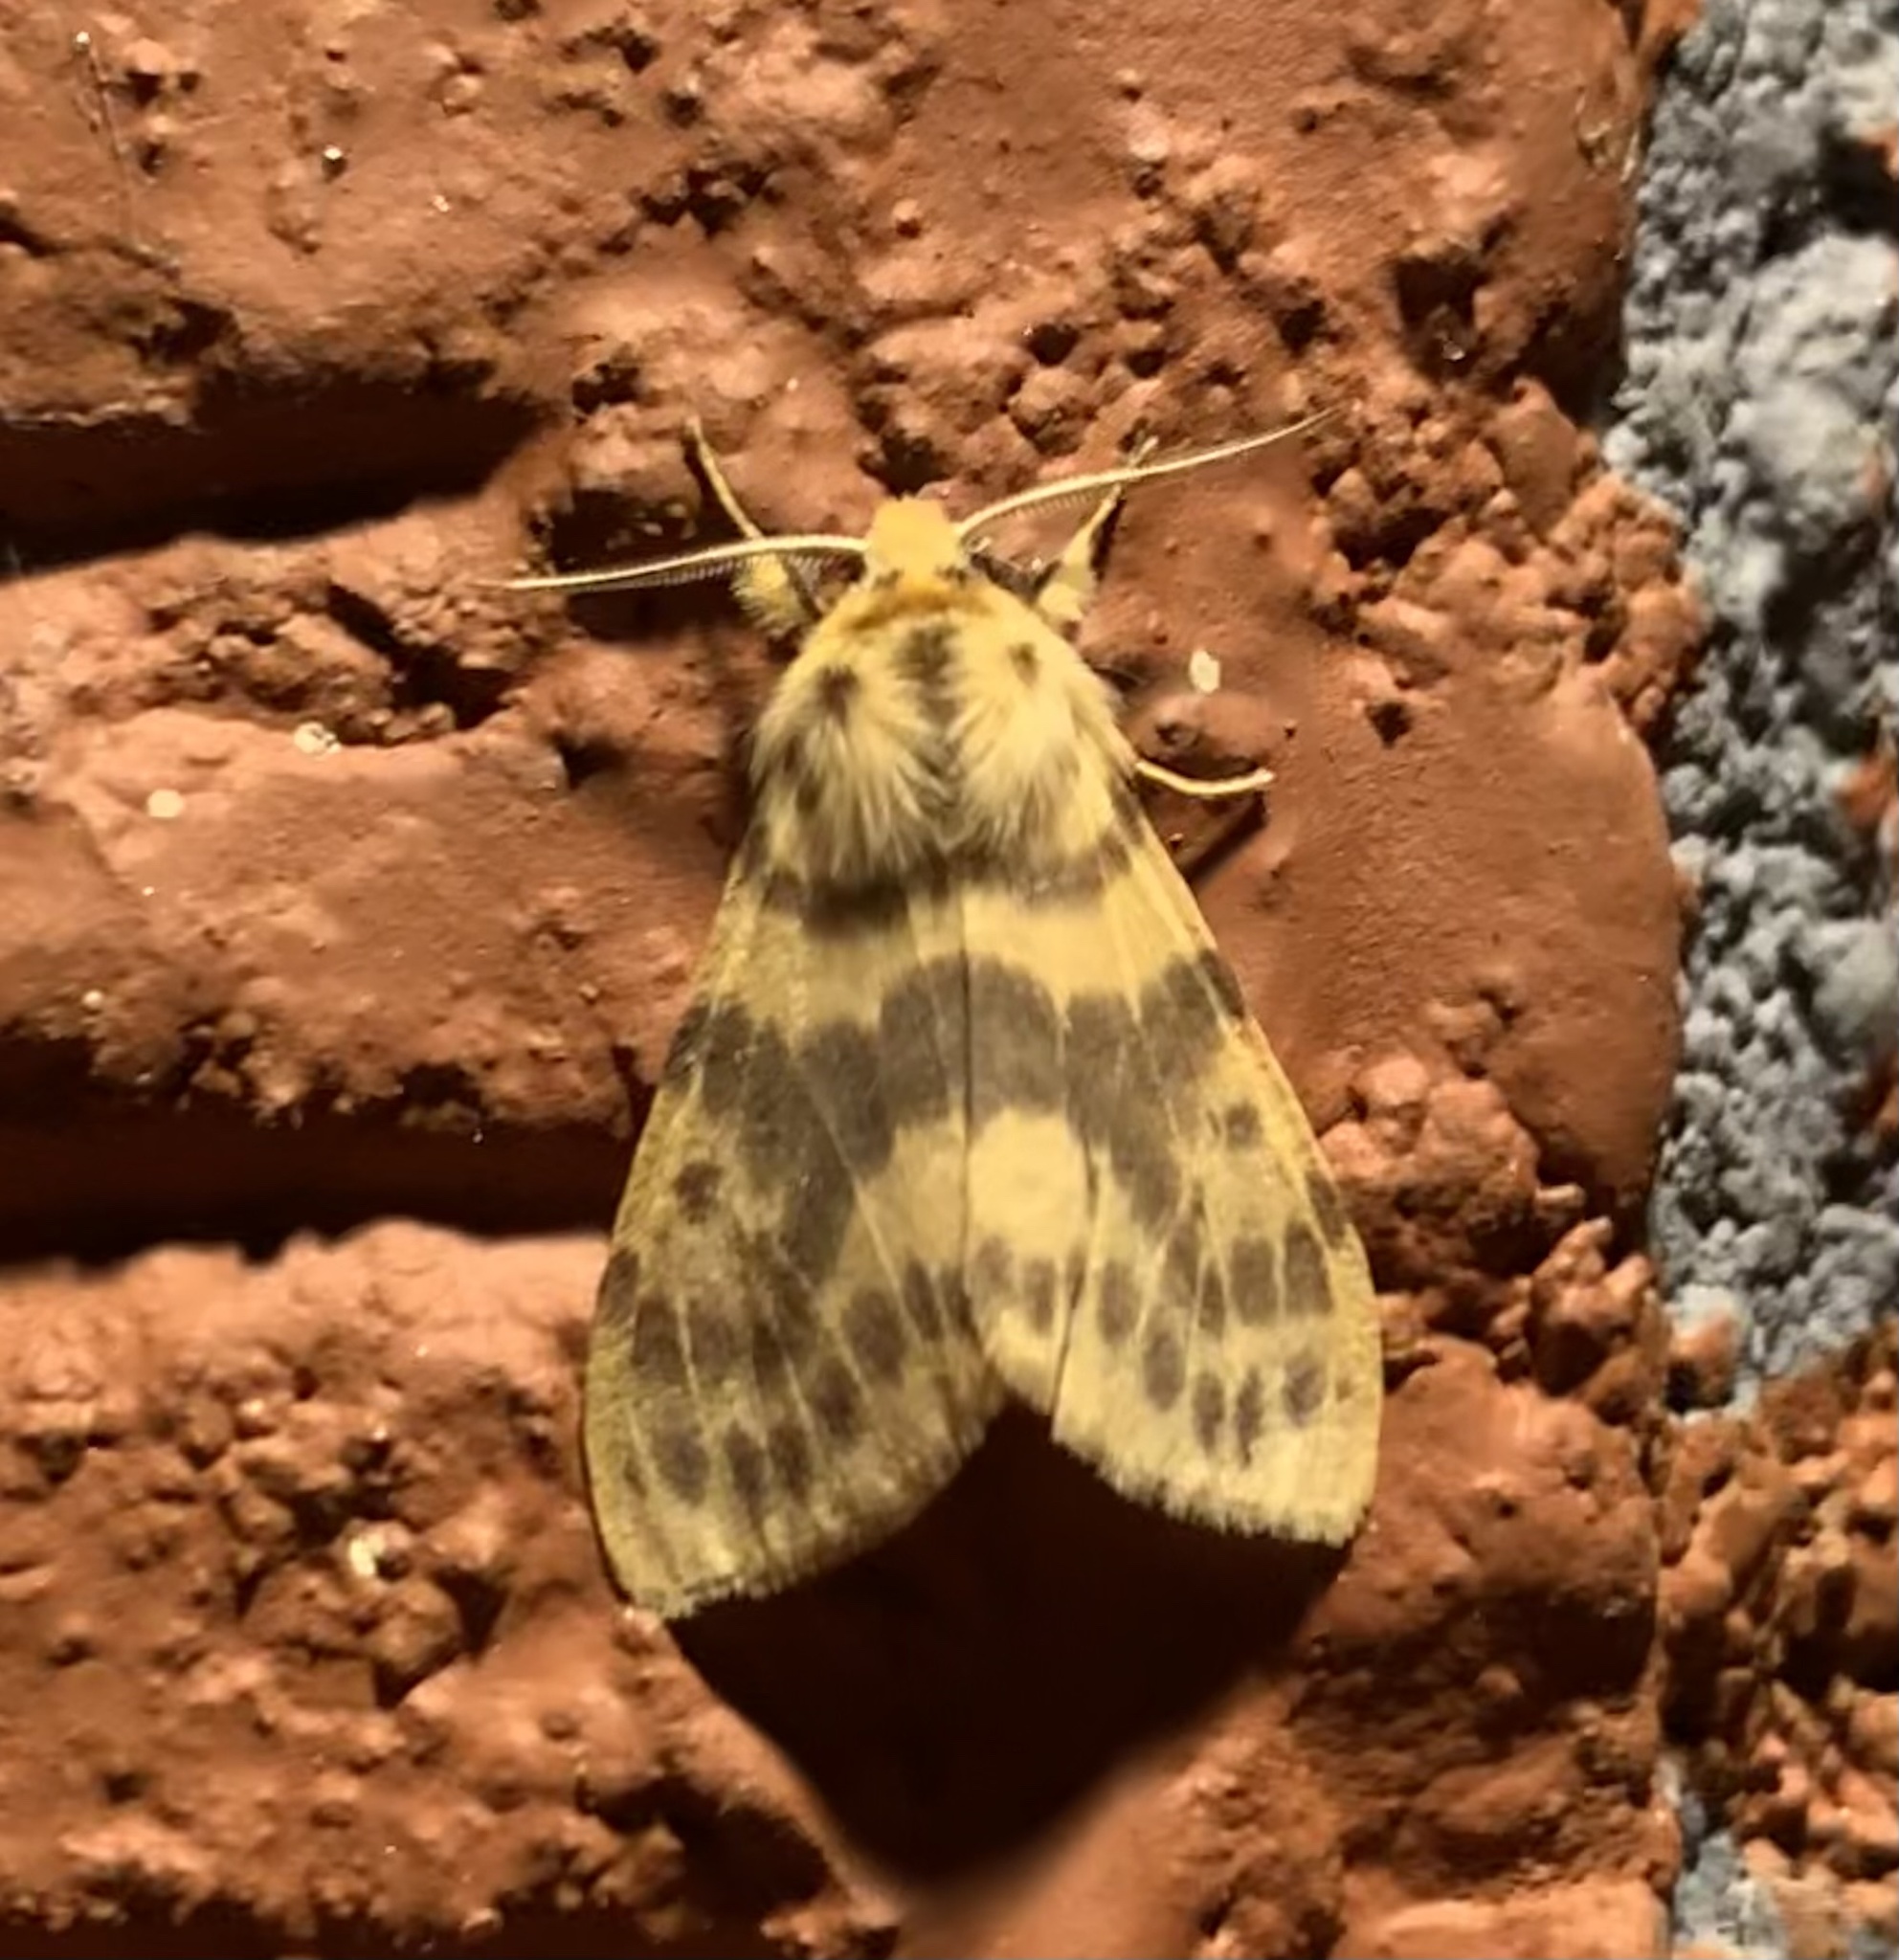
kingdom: Animalia
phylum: Arthropoda
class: Insecta
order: Lepidoptera
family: Erebidae
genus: Lemyra
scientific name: Lemyra
